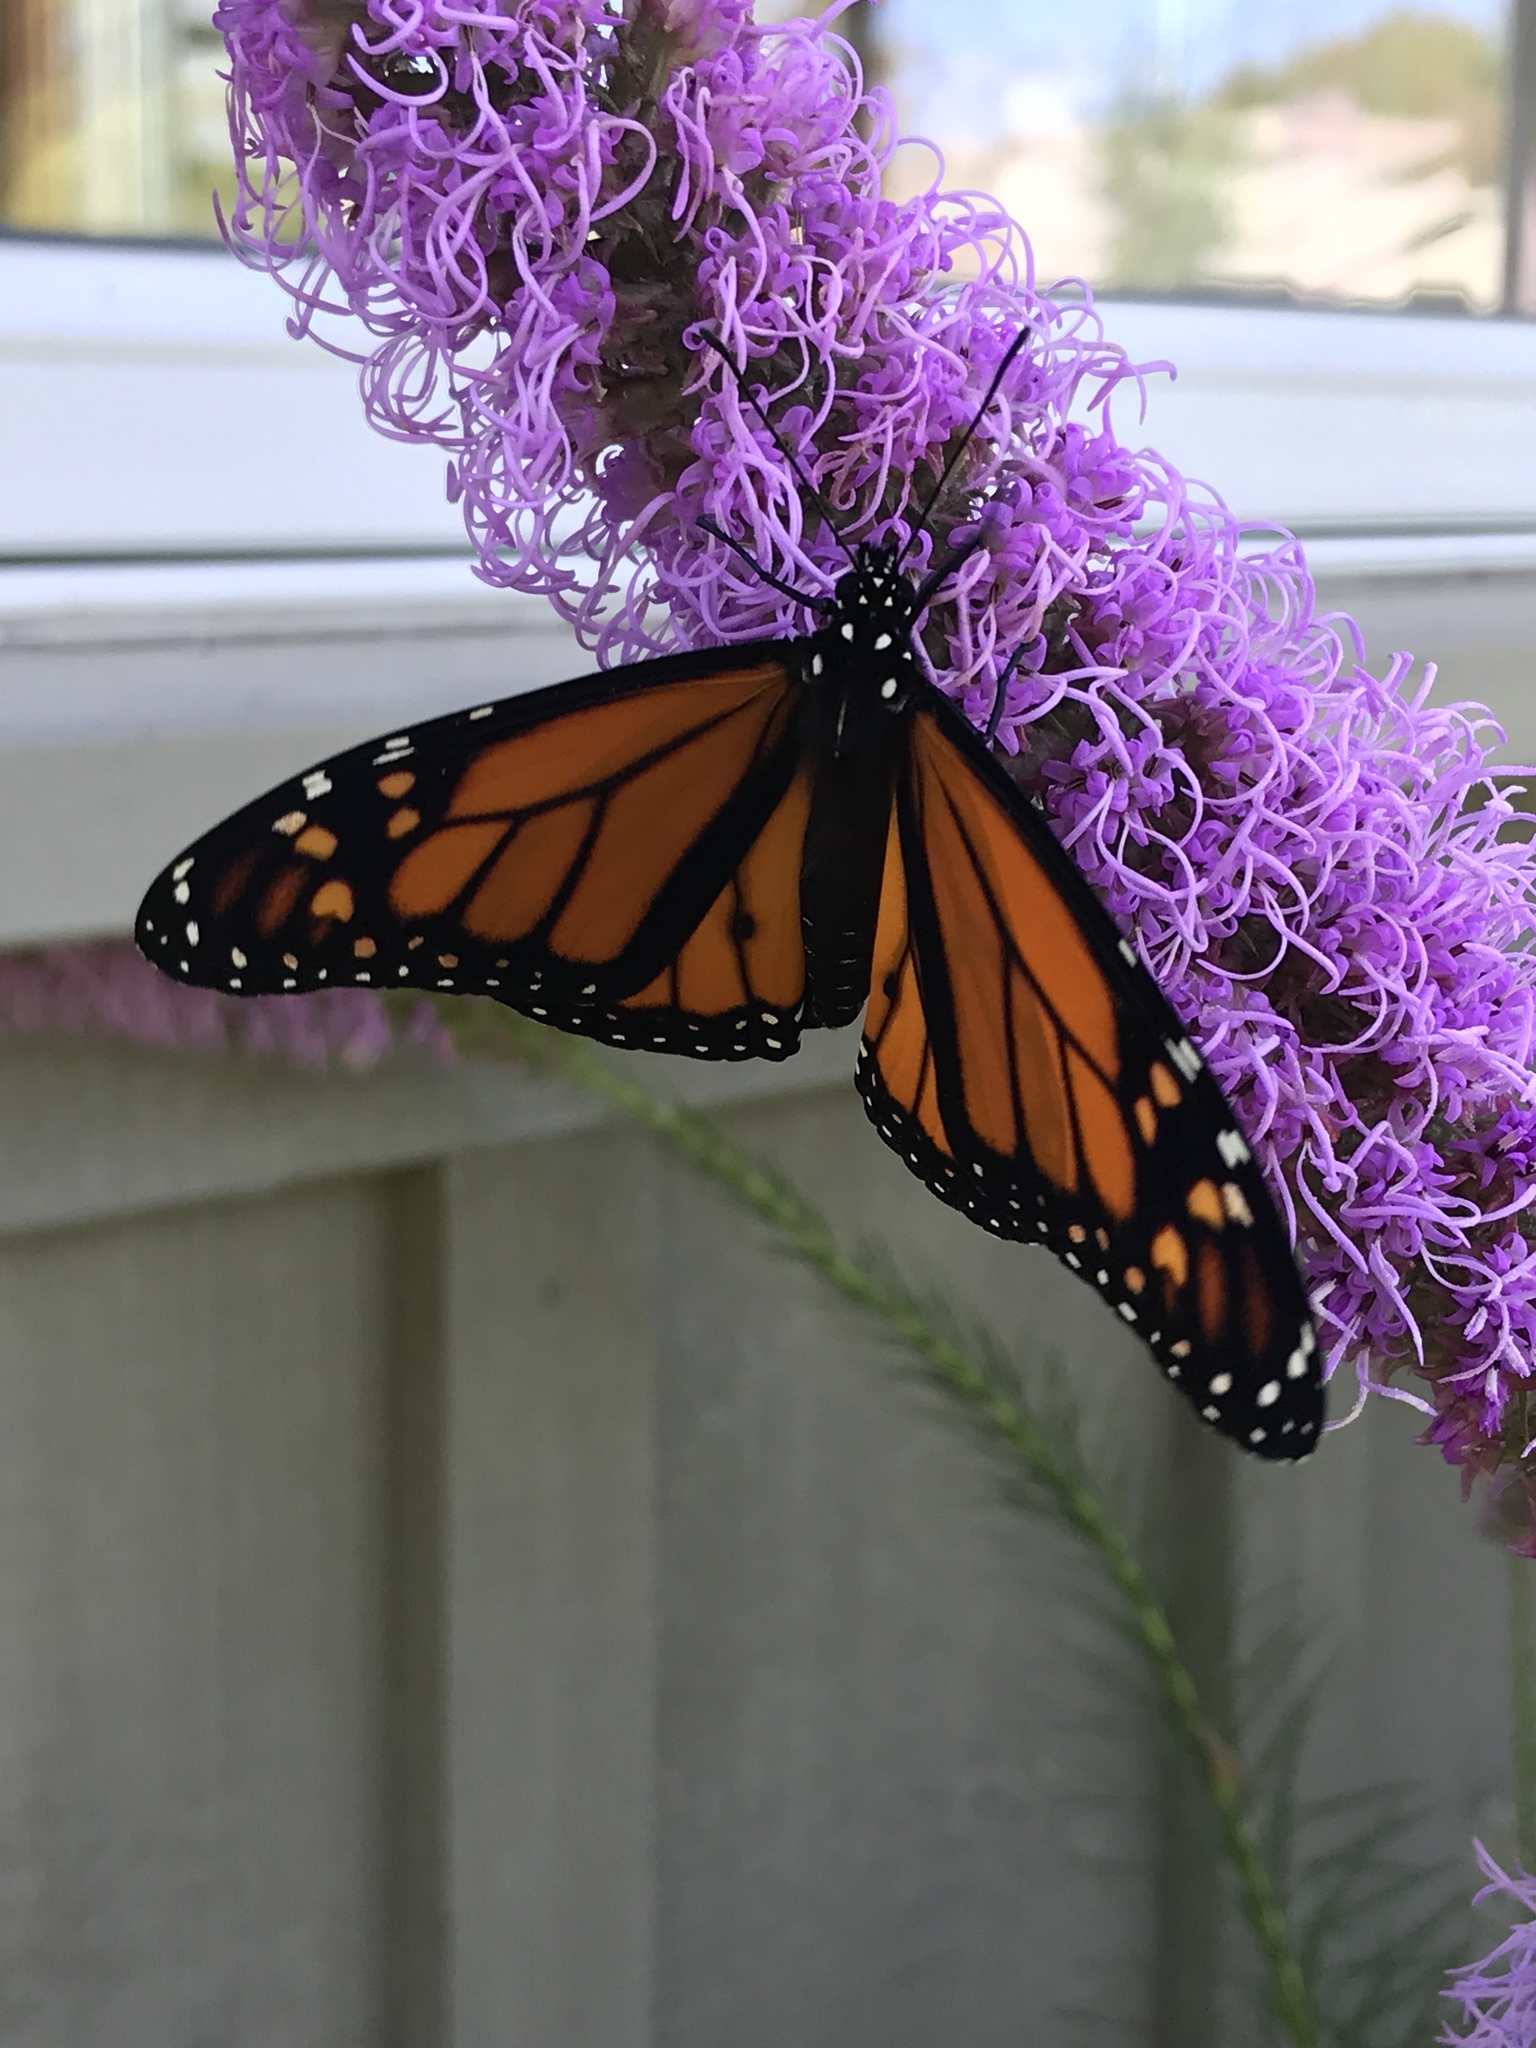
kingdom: Animalia
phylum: Arthropoda
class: Insecta
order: Lepidoptera
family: Nymphalidae
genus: Danaus
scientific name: Danaus plexippus
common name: Monarch
